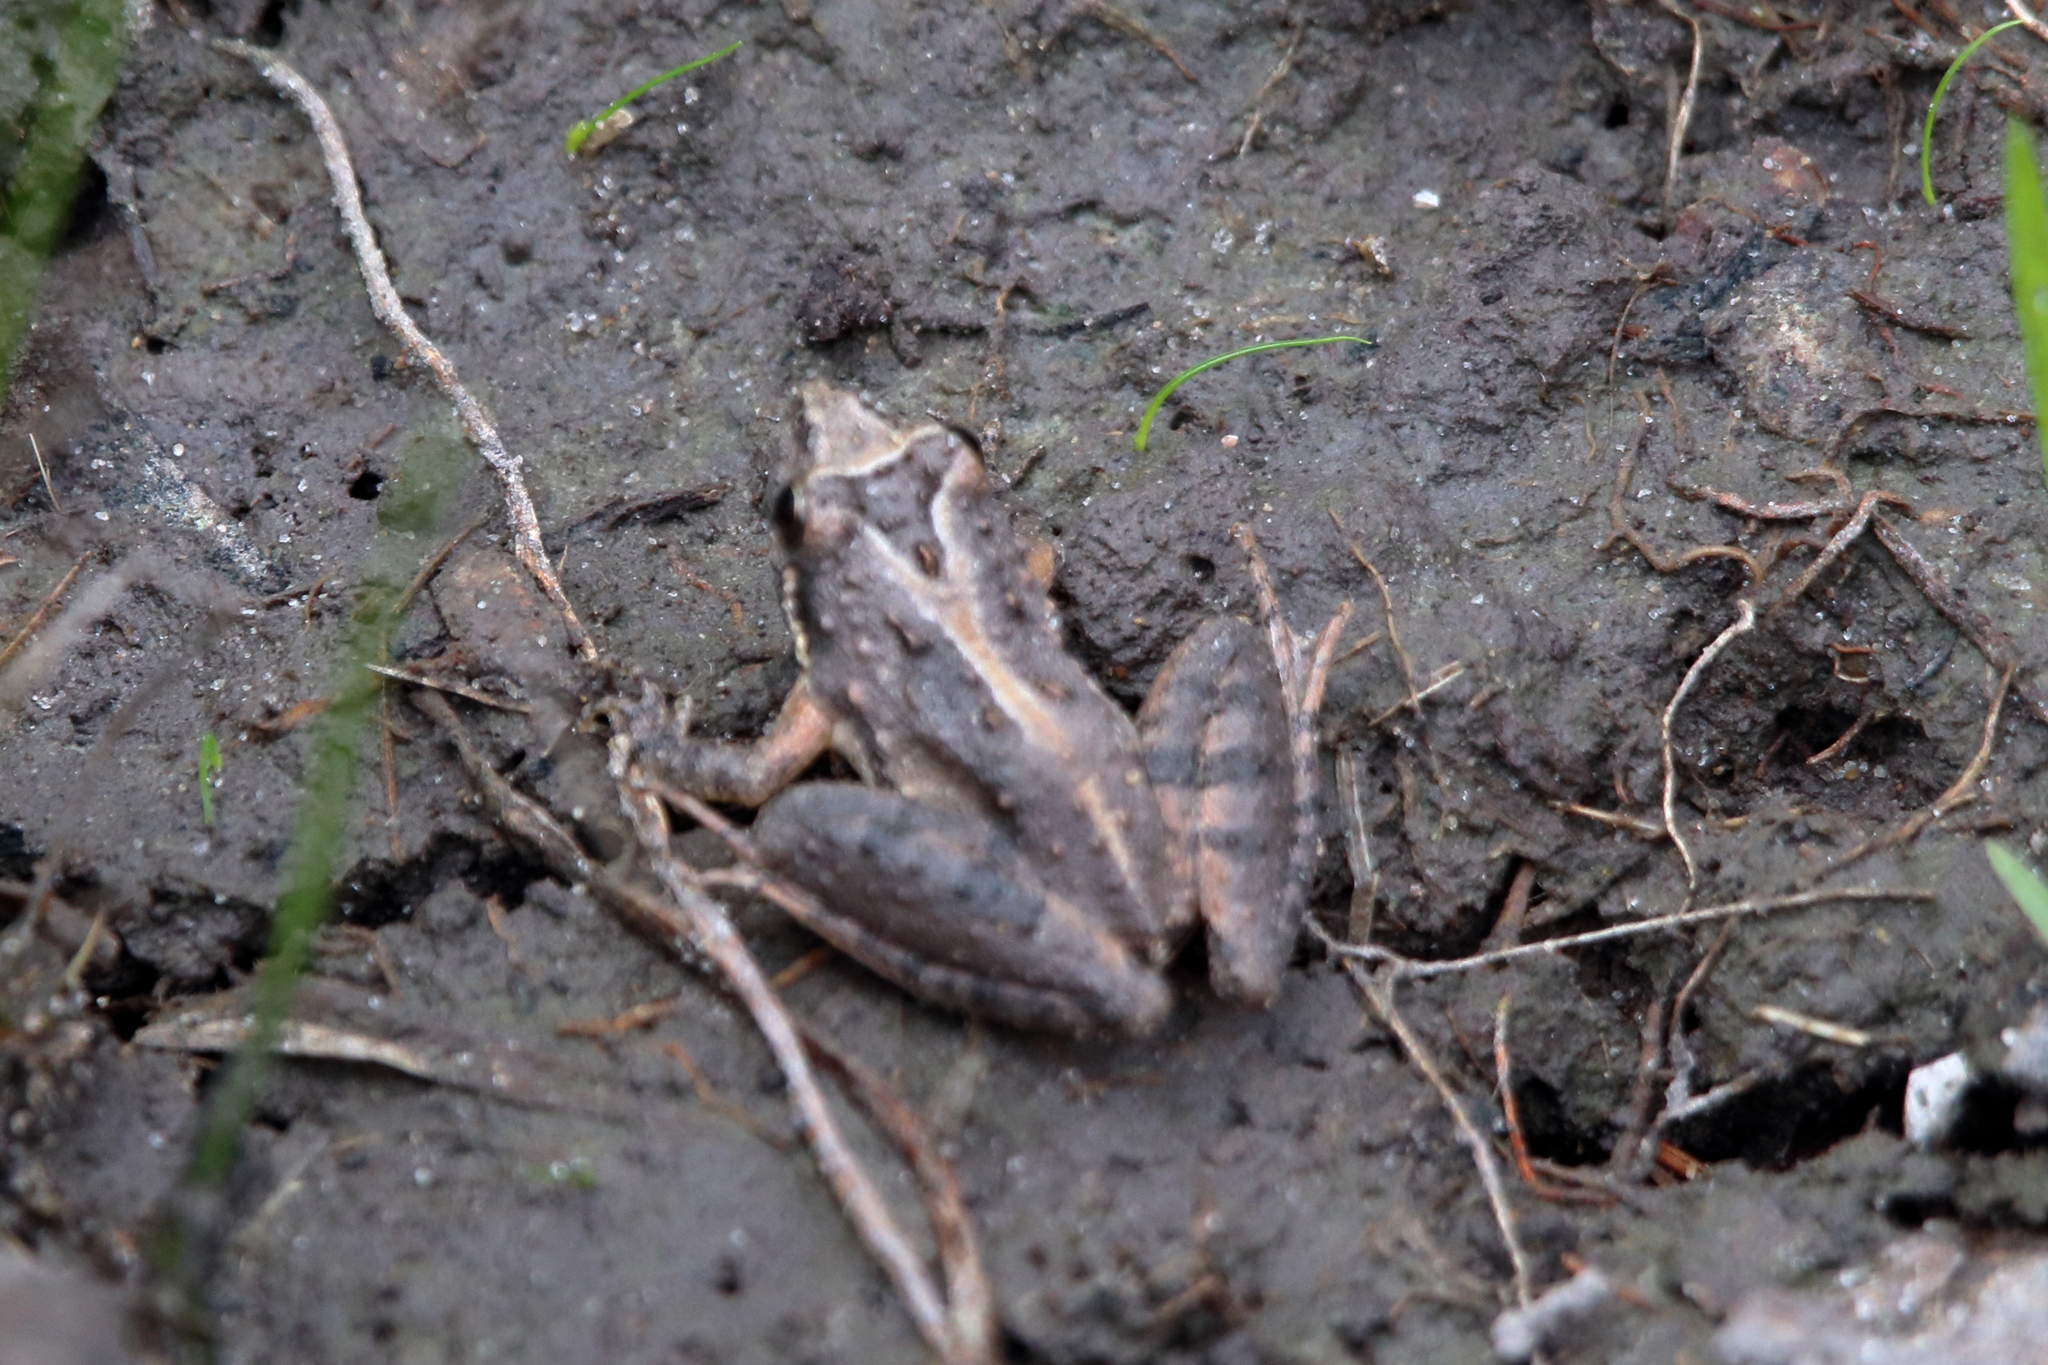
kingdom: Animalia
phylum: Chordata
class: Amphibia
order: Anura
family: Hylidae
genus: Acris
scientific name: Acris gryllus
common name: Southern cricket frog
